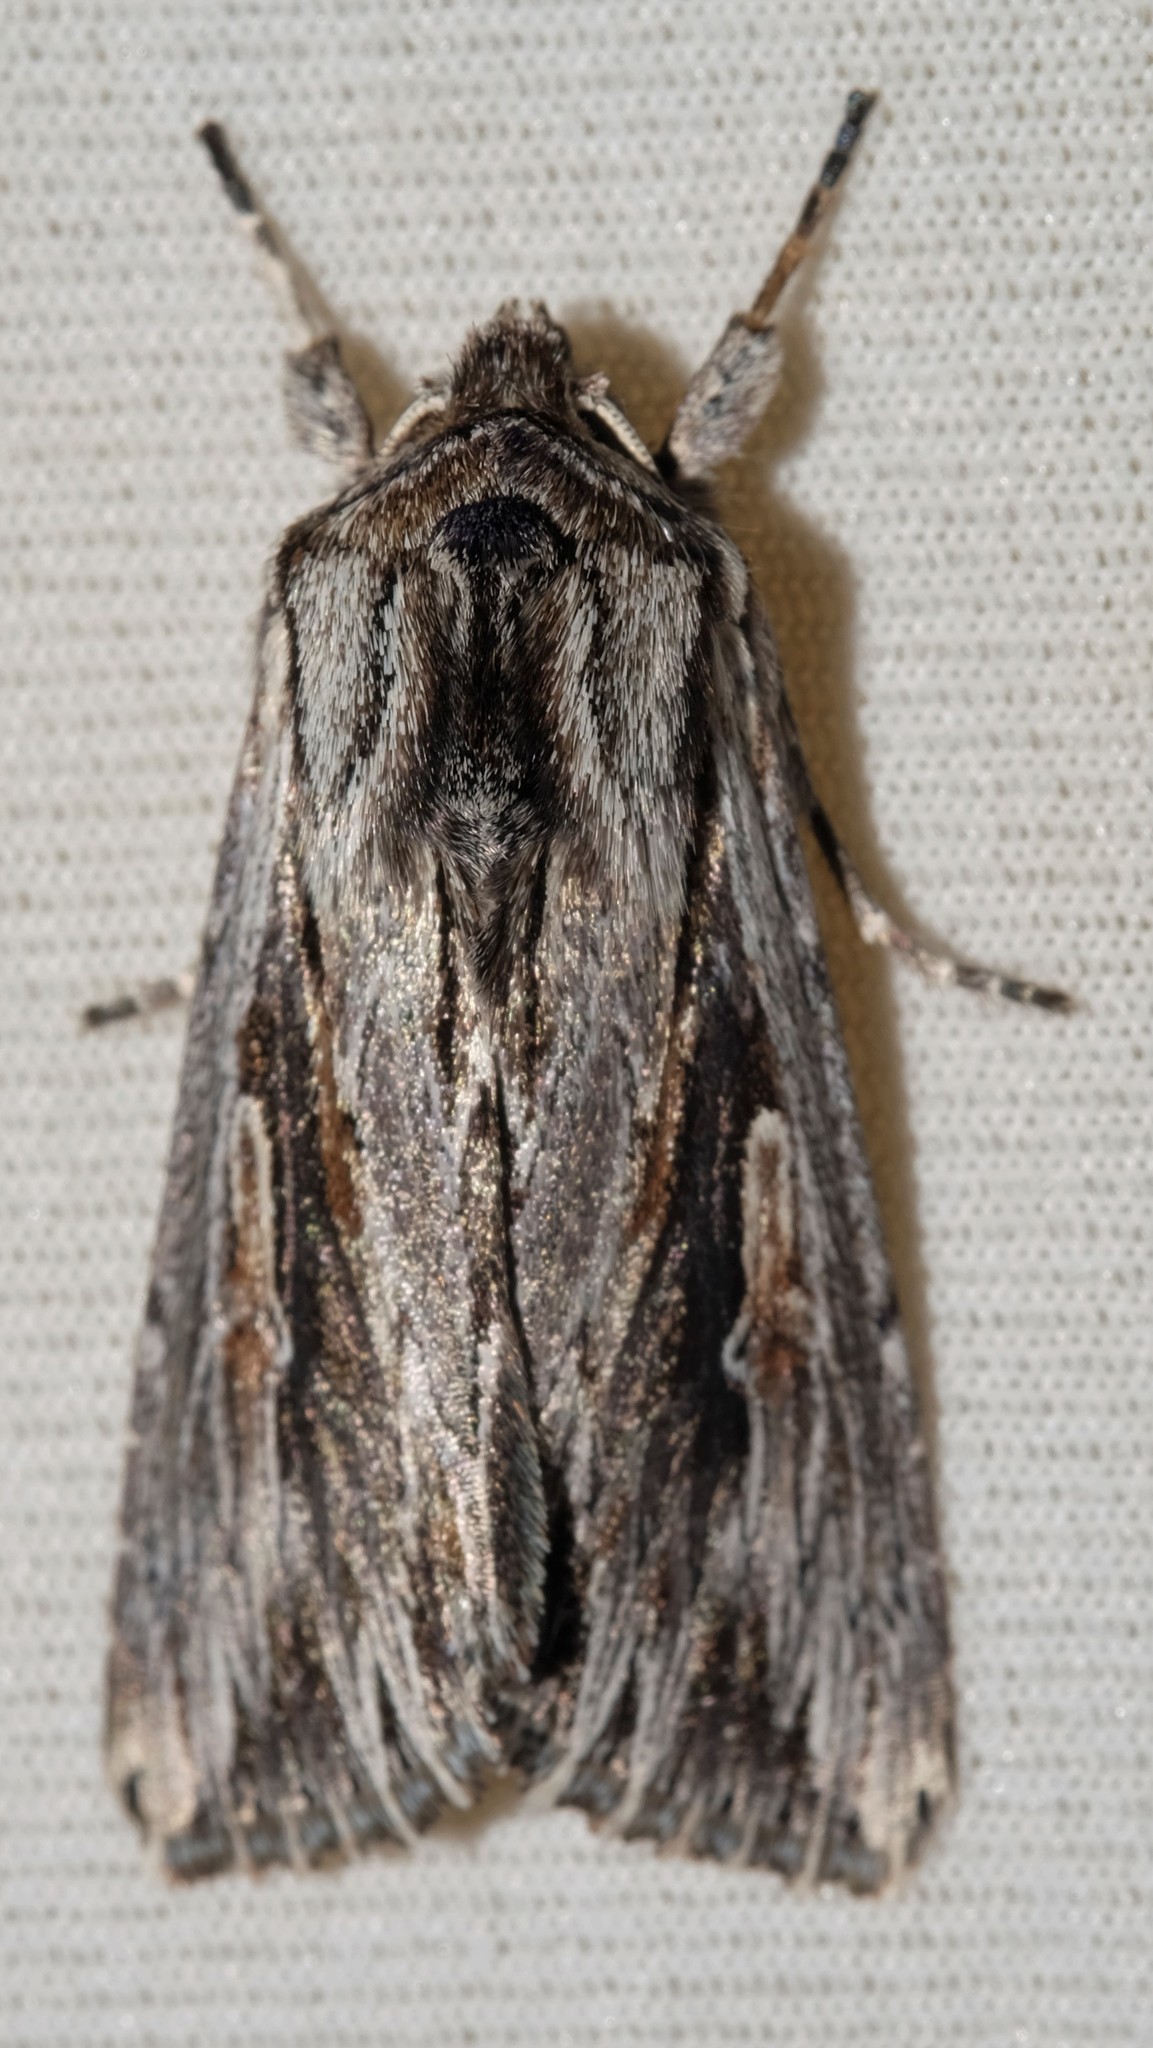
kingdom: Animalia
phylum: Arthropoda
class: Insecta
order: Lepidoptera
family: Noctuidae
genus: Persectania
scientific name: Persectania ewingii
